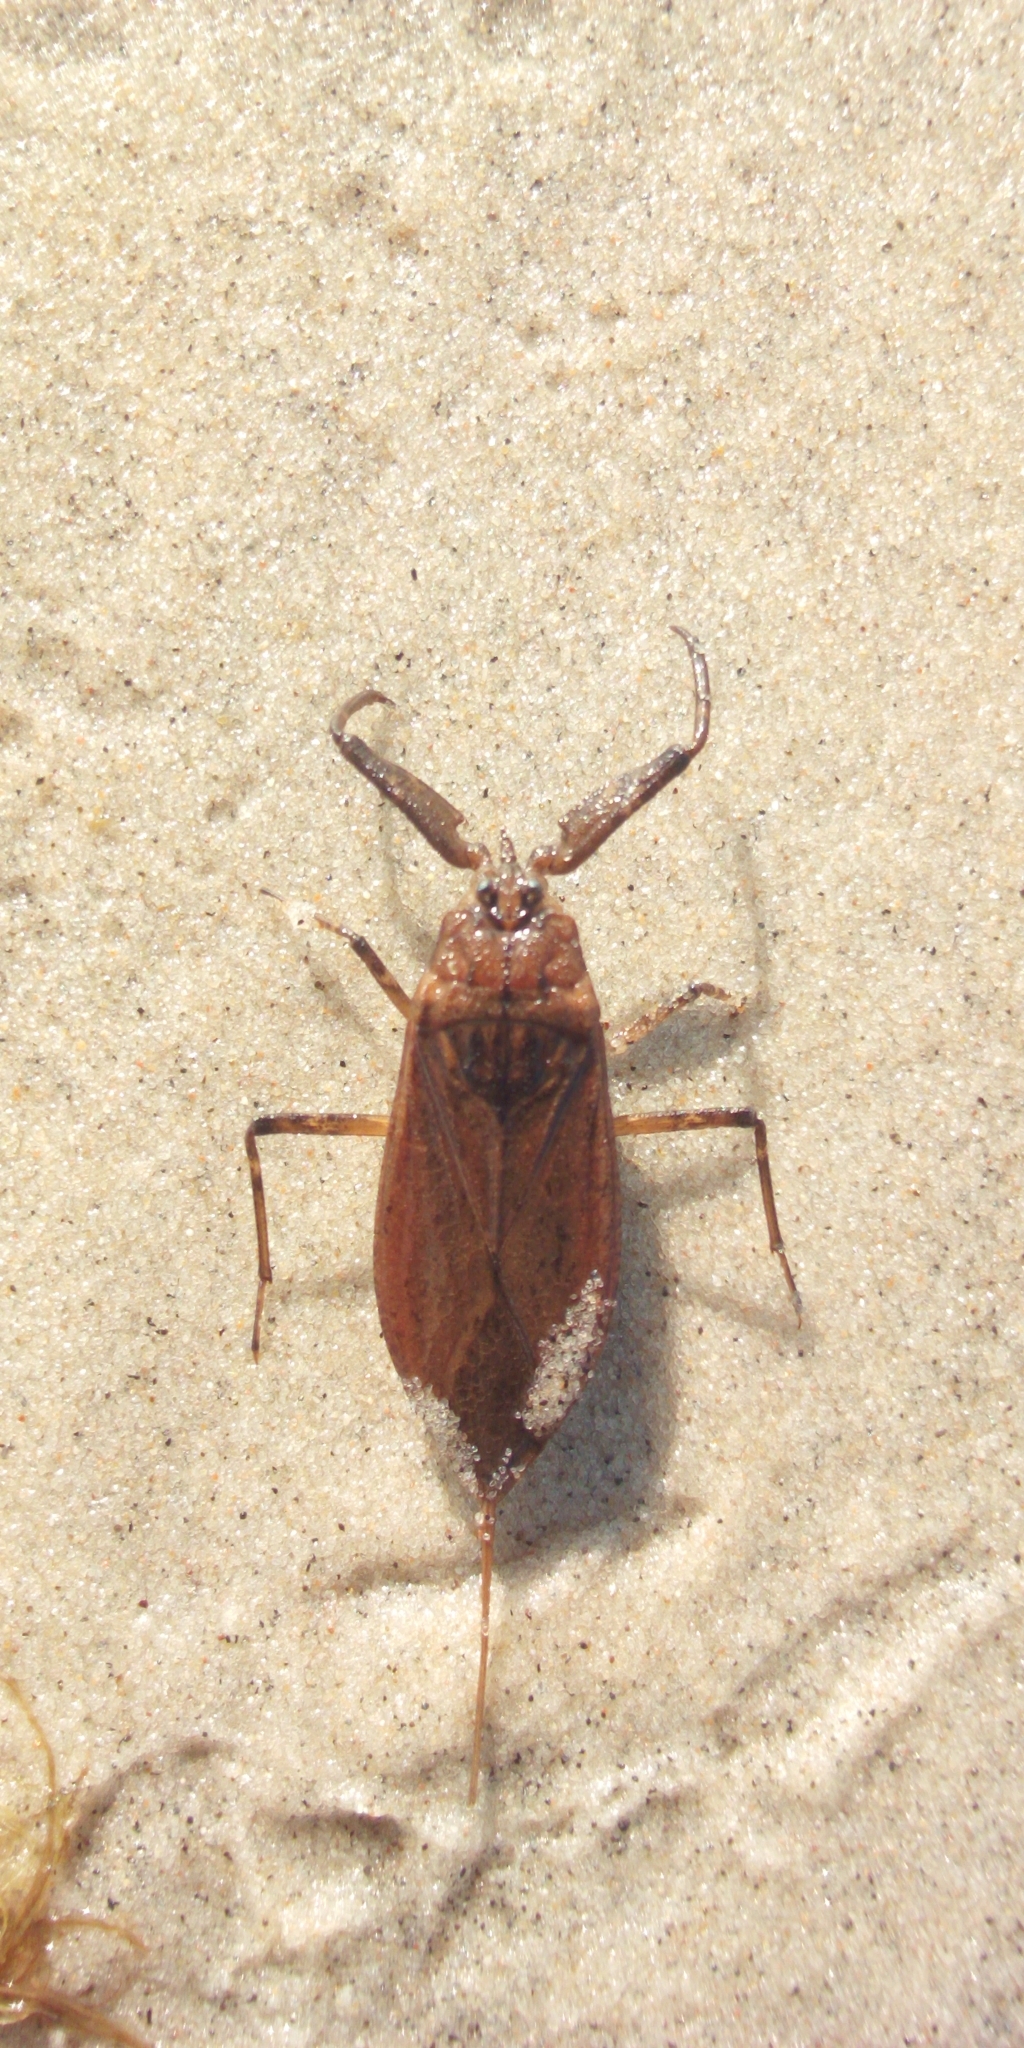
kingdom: Animalia
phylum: Arthropoda
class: Insecta
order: Hemiptera
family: Nepidae
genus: Nepa
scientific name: Nepa cinerea
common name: Water scorpion
